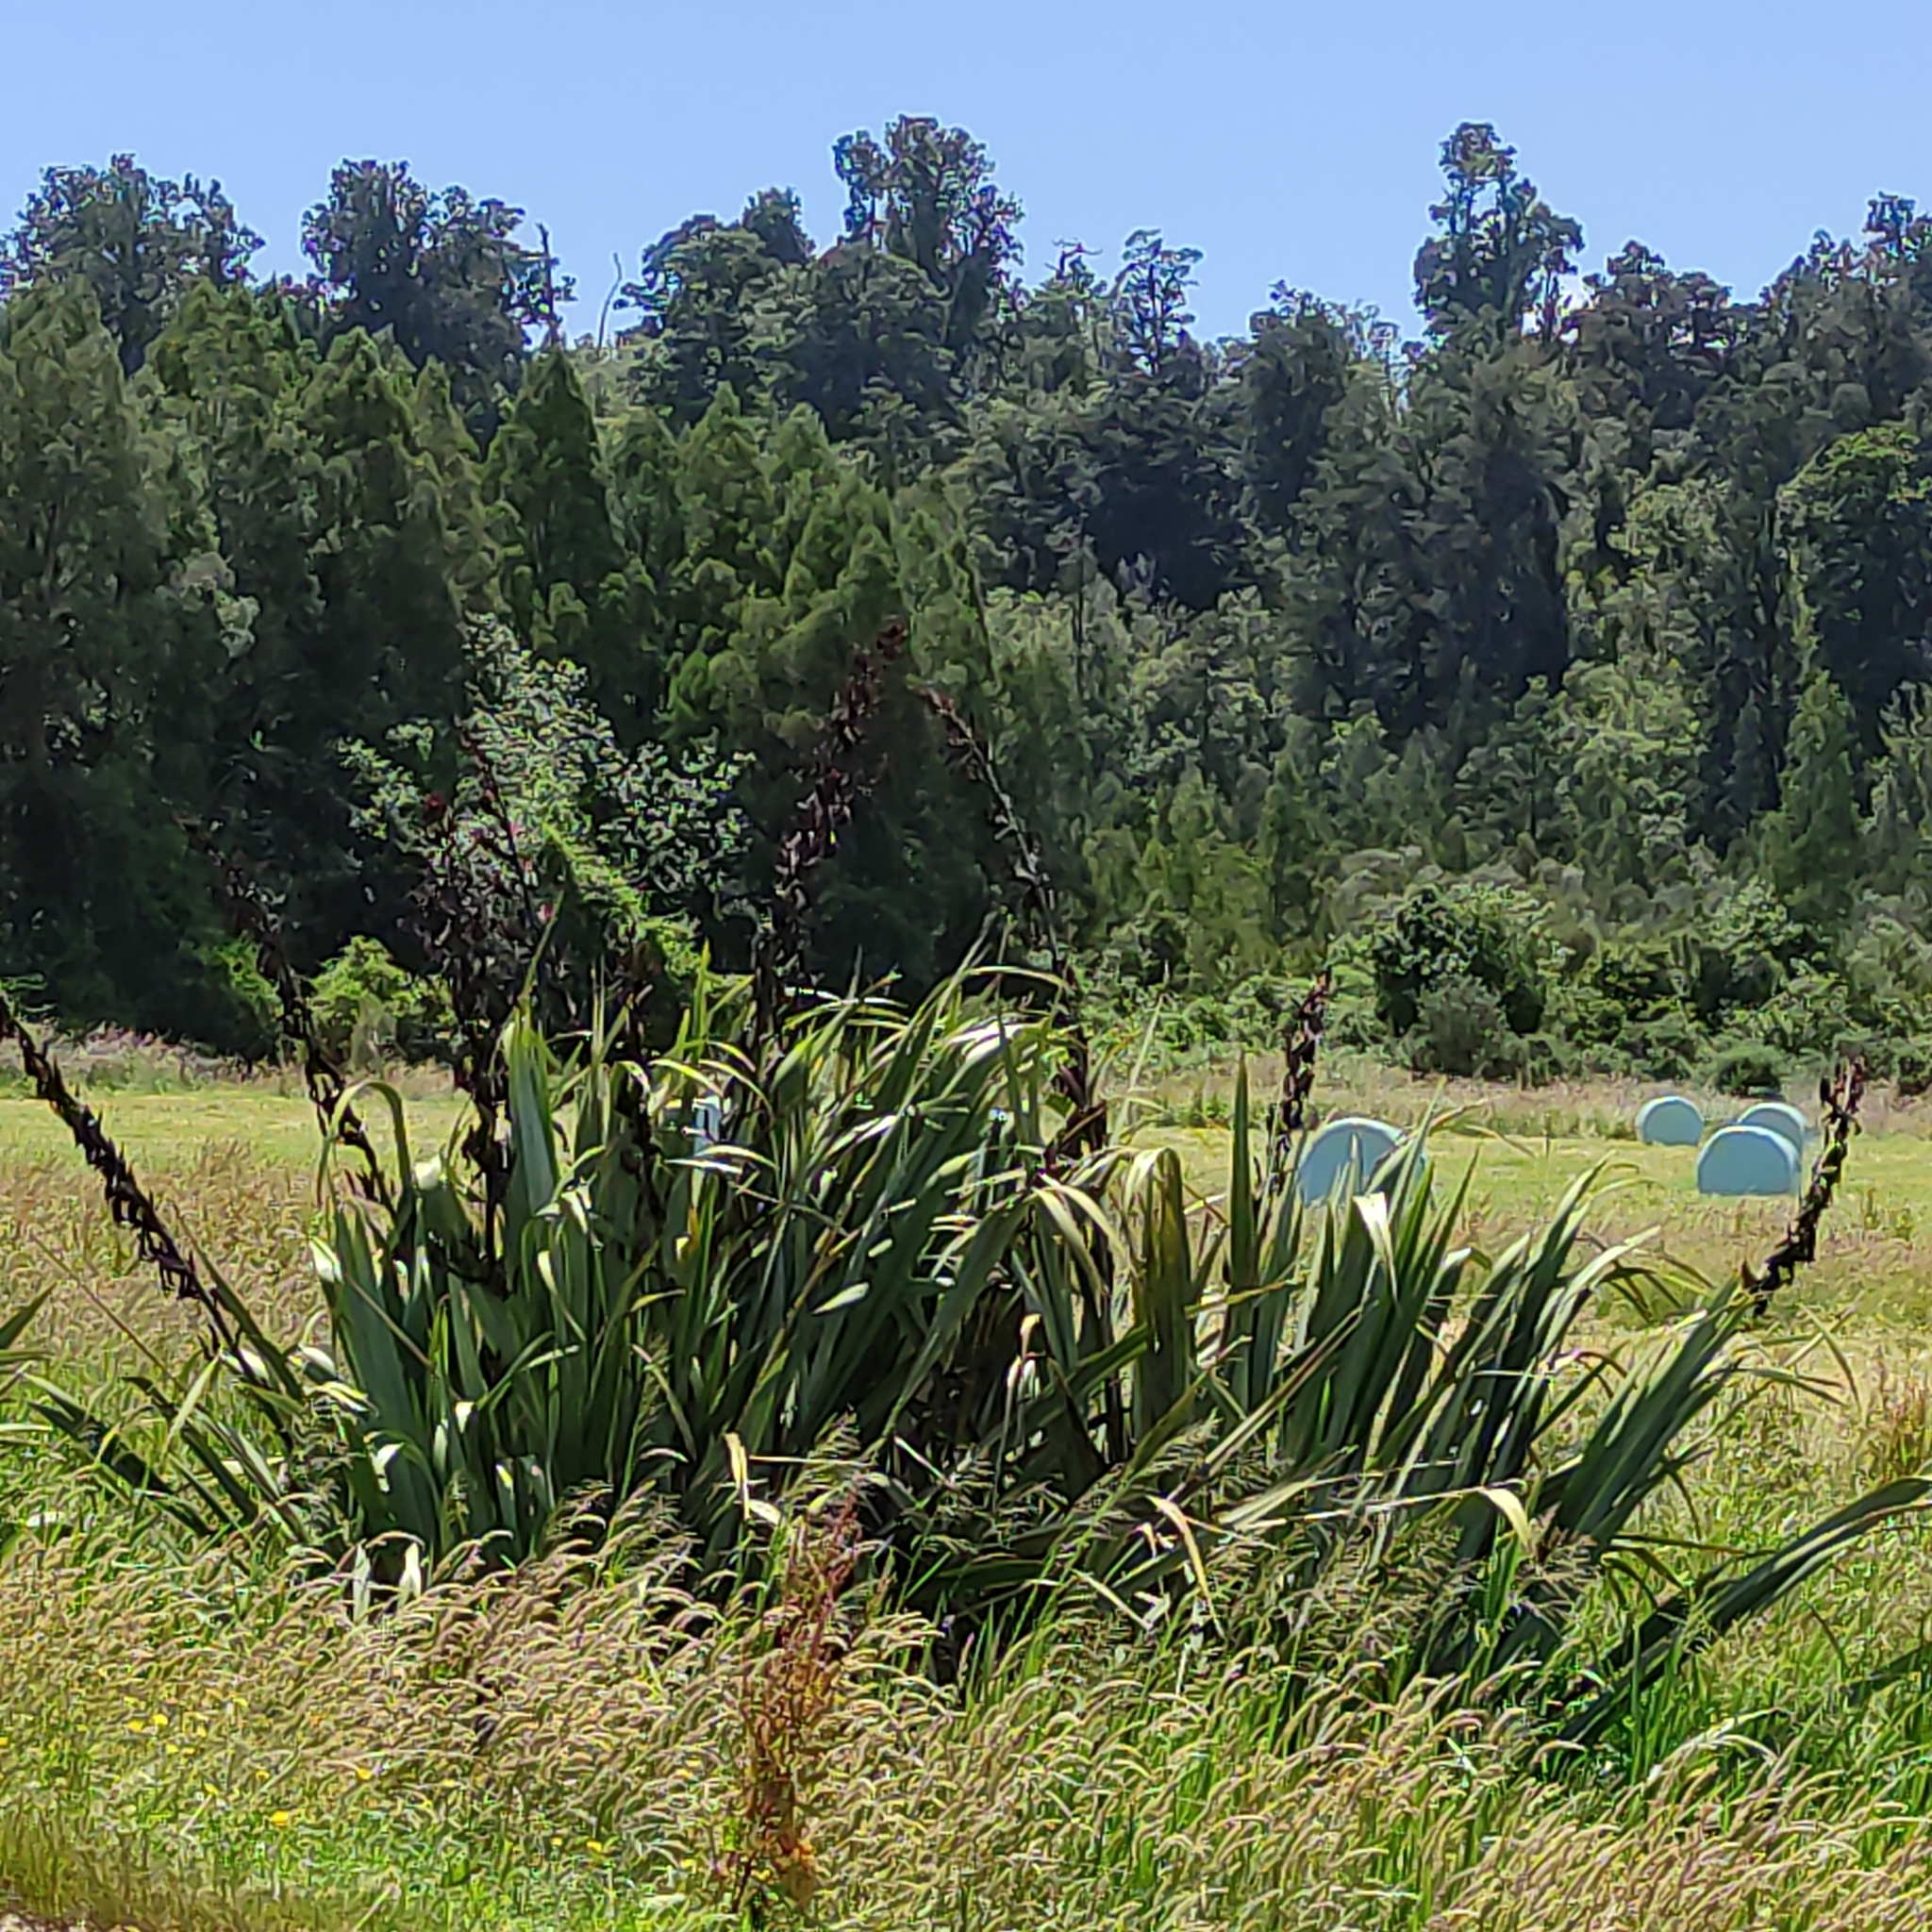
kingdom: Plantae
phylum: Tracheophyta
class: Liliopsida
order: Asparagales
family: Asphodelaceae
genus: Phormium
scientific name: Phormium tenax
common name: New zealand flax
